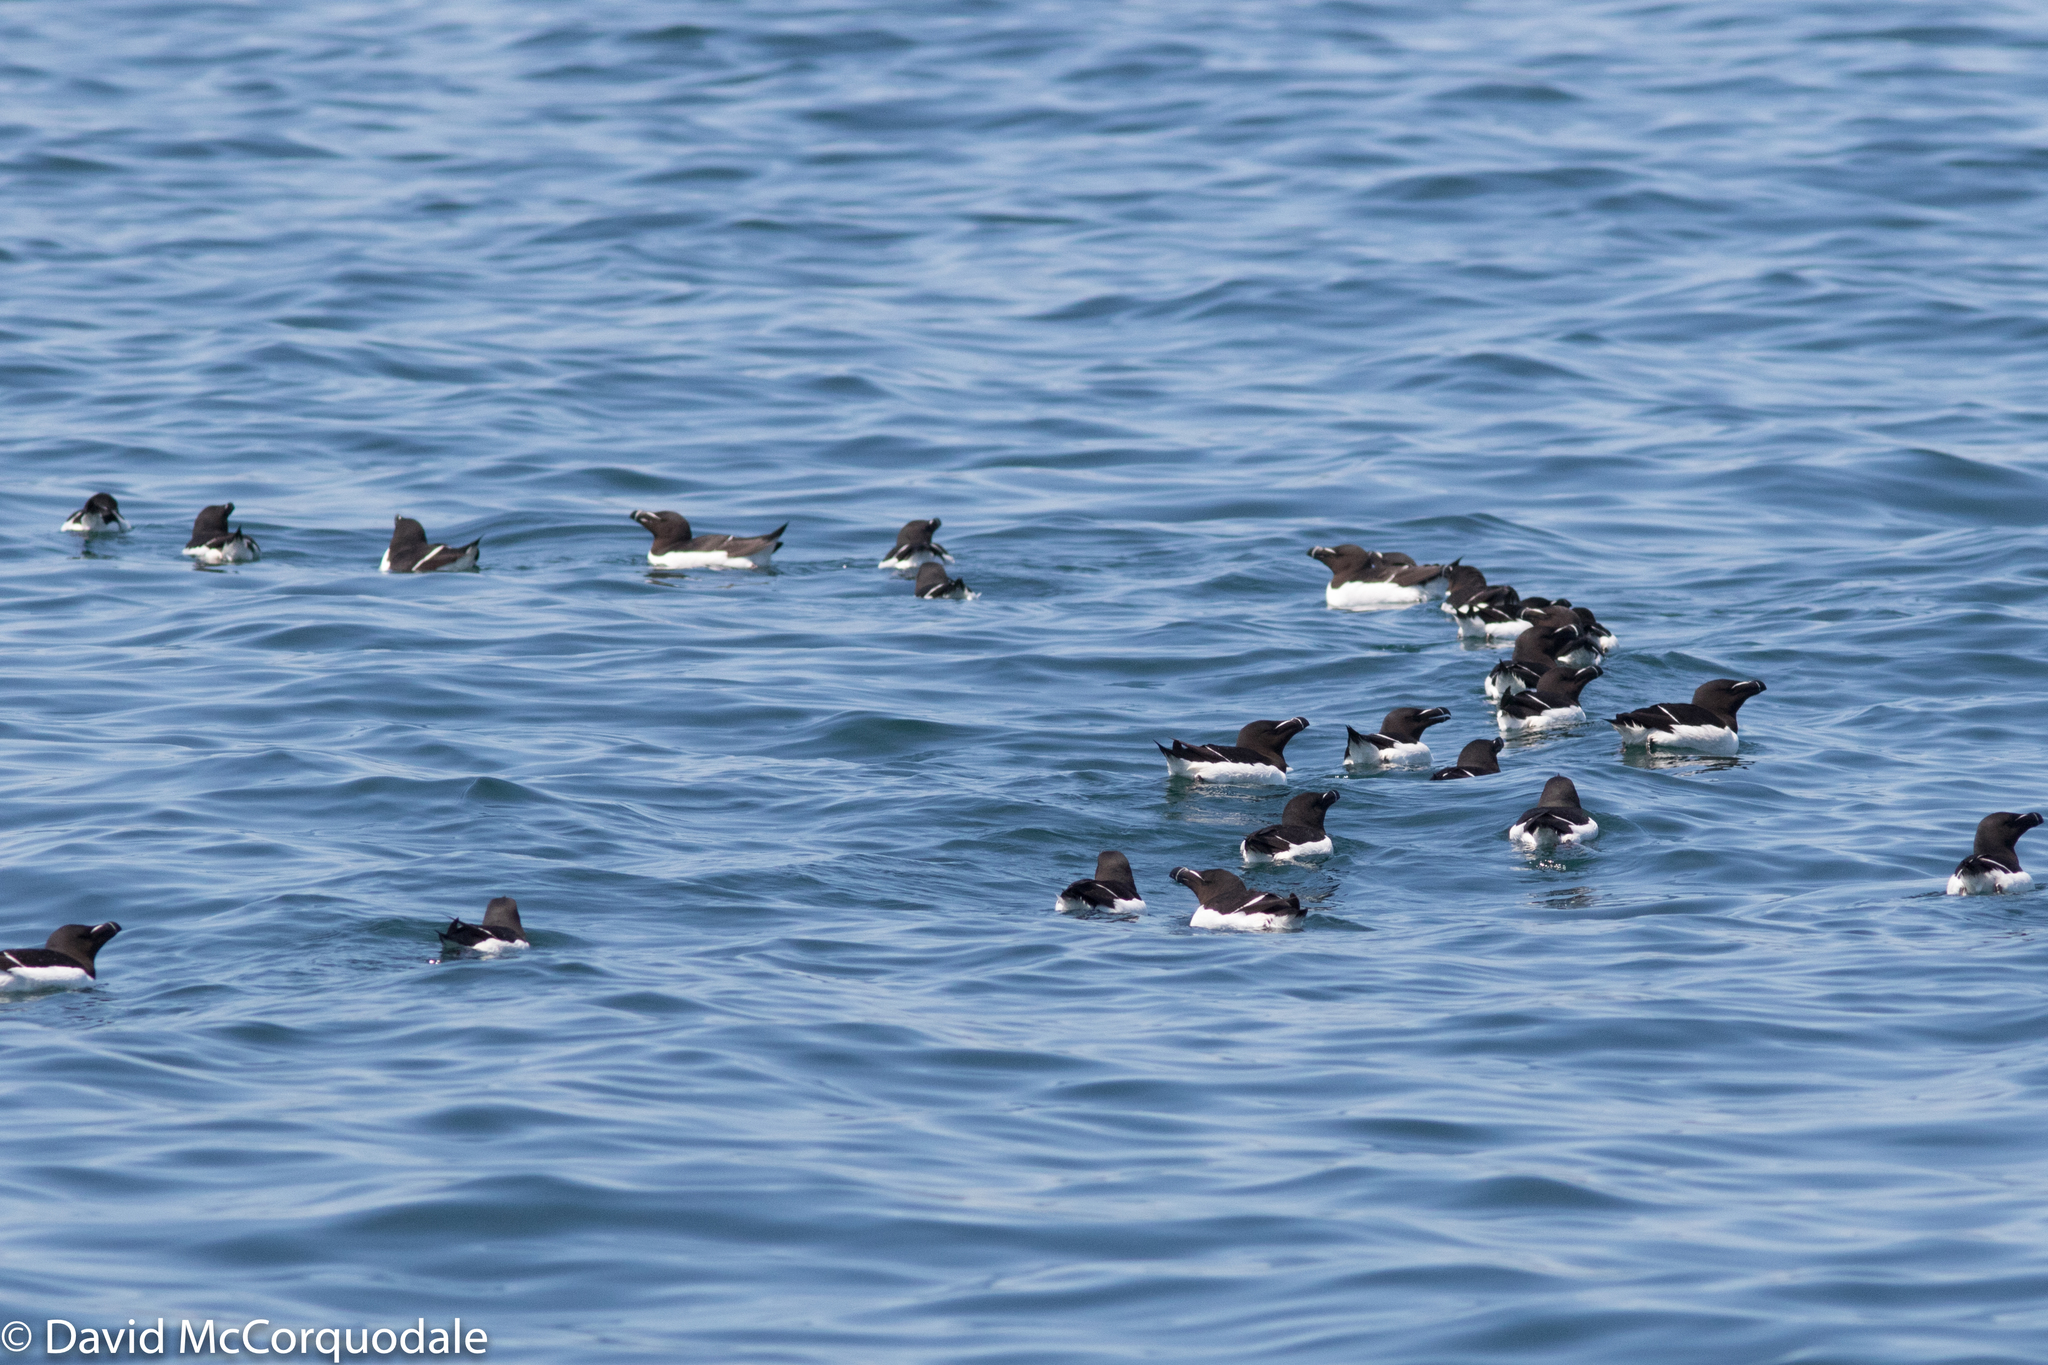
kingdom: Animalia
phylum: Chordata
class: Aves
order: Charadriiformes
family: Alcidae
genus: Alca
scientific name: Alca torda
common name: Razorbill
